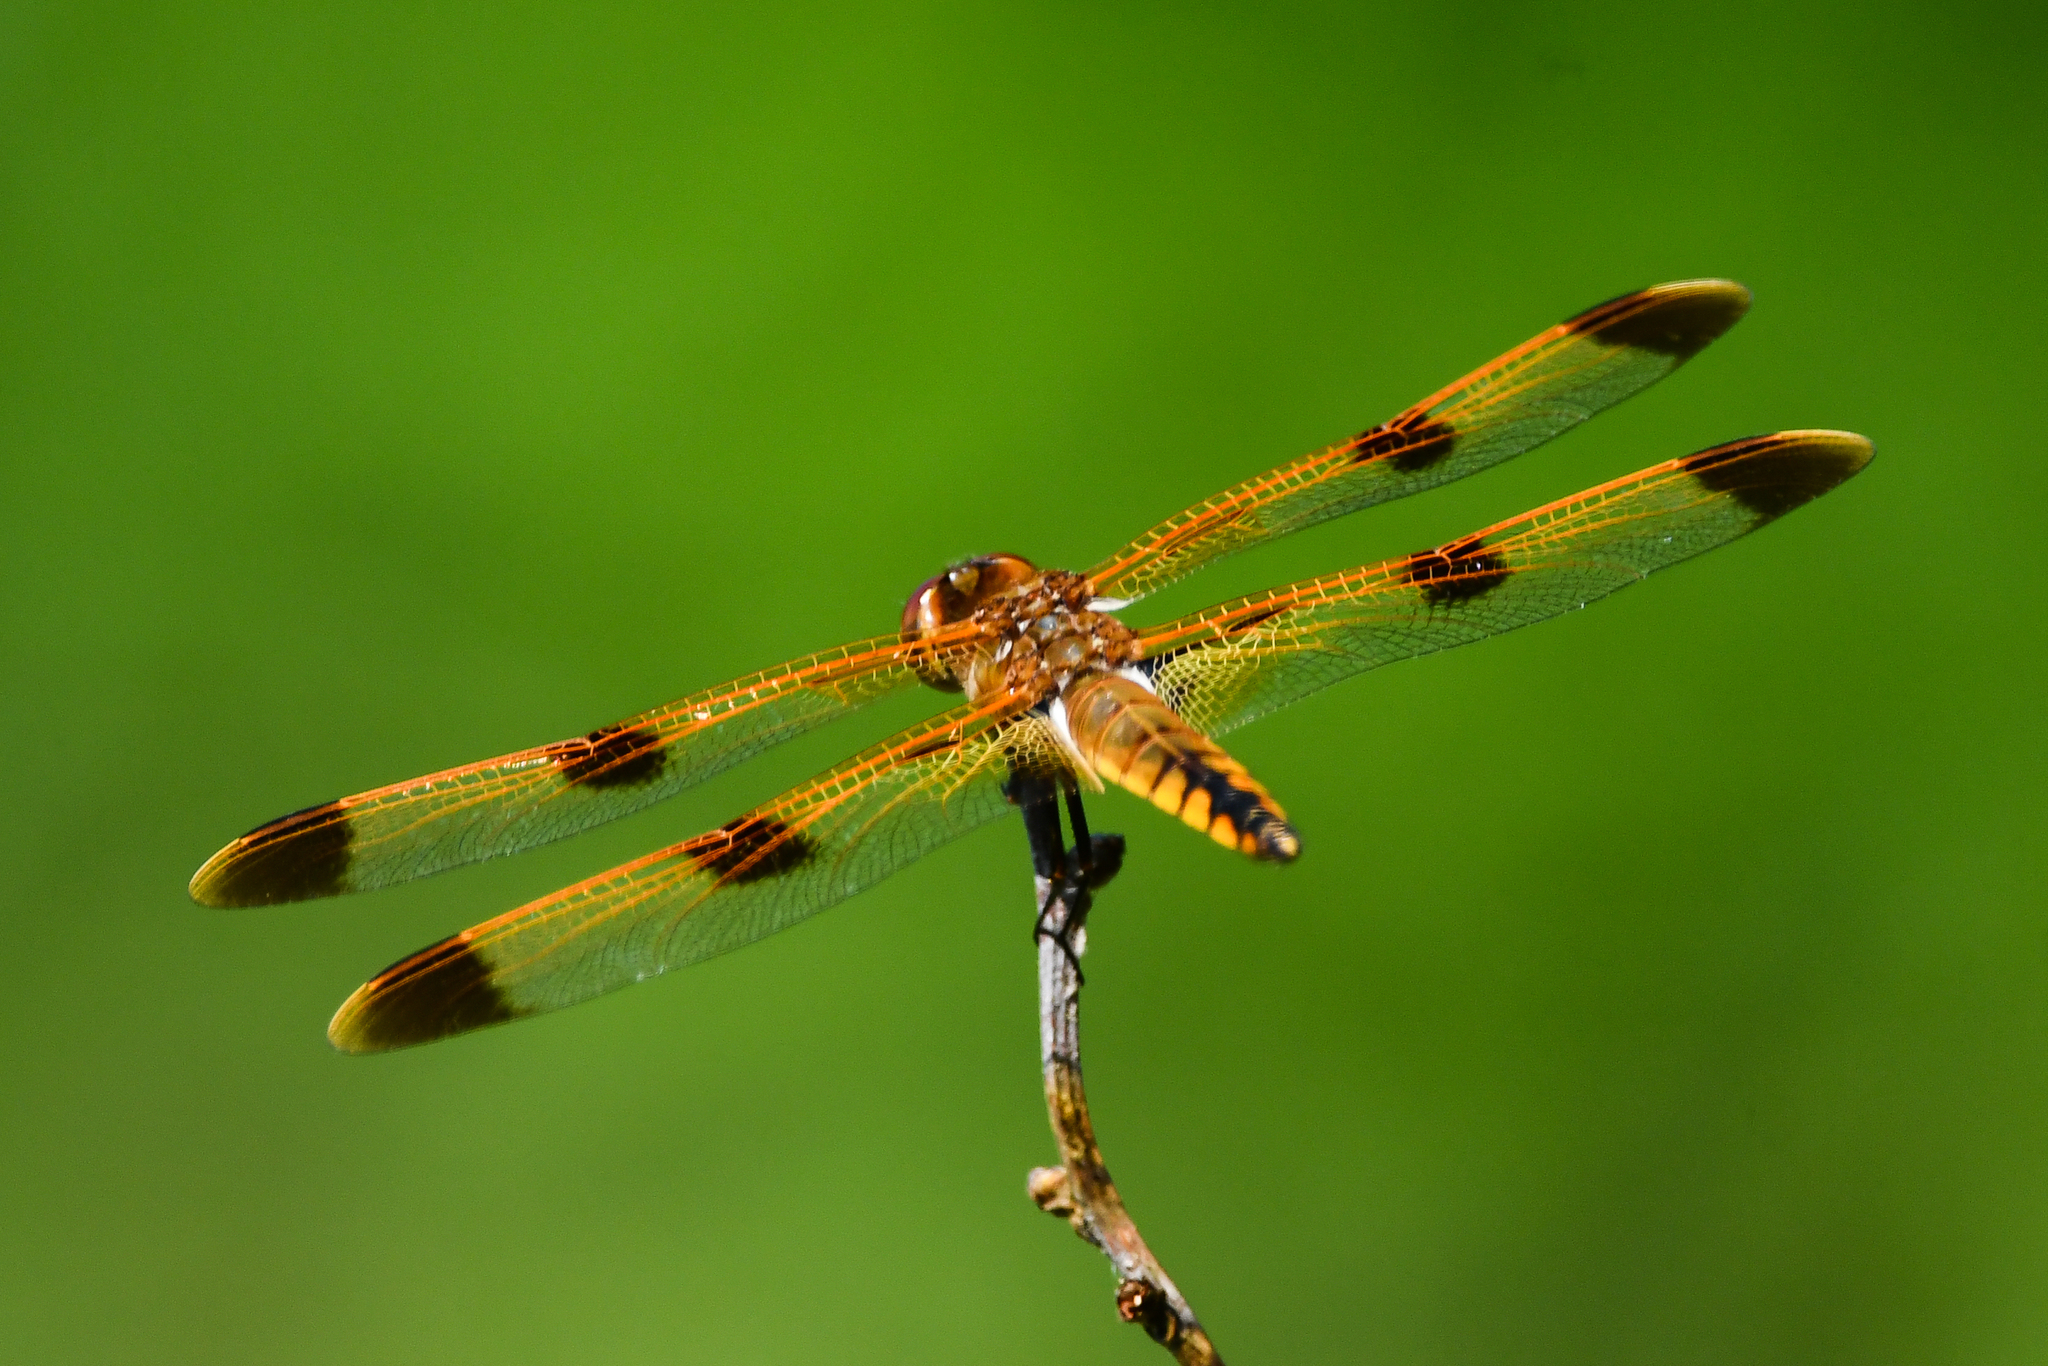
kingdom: Animalia
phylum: Arthropoda
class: Insecta
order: Odonata
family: Libellulidae
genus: Libellula
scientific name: Libellula semifasciata
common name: Painted skimmer
